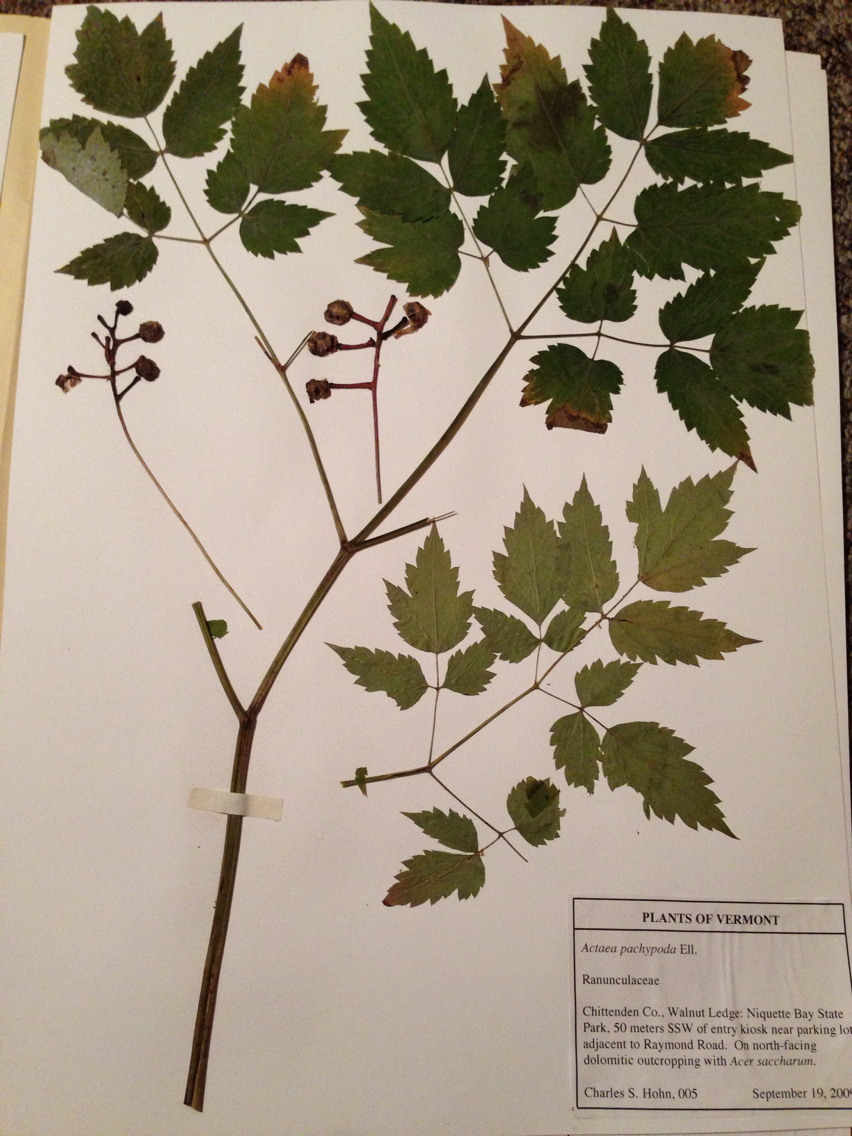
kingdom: Plantae
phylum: Tracheophyta
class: Magnoliopsida
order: Ranunculales
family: Ranunculaceae
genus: Actaea
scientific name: Actaea pachypoda
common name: Doll's-eyes
